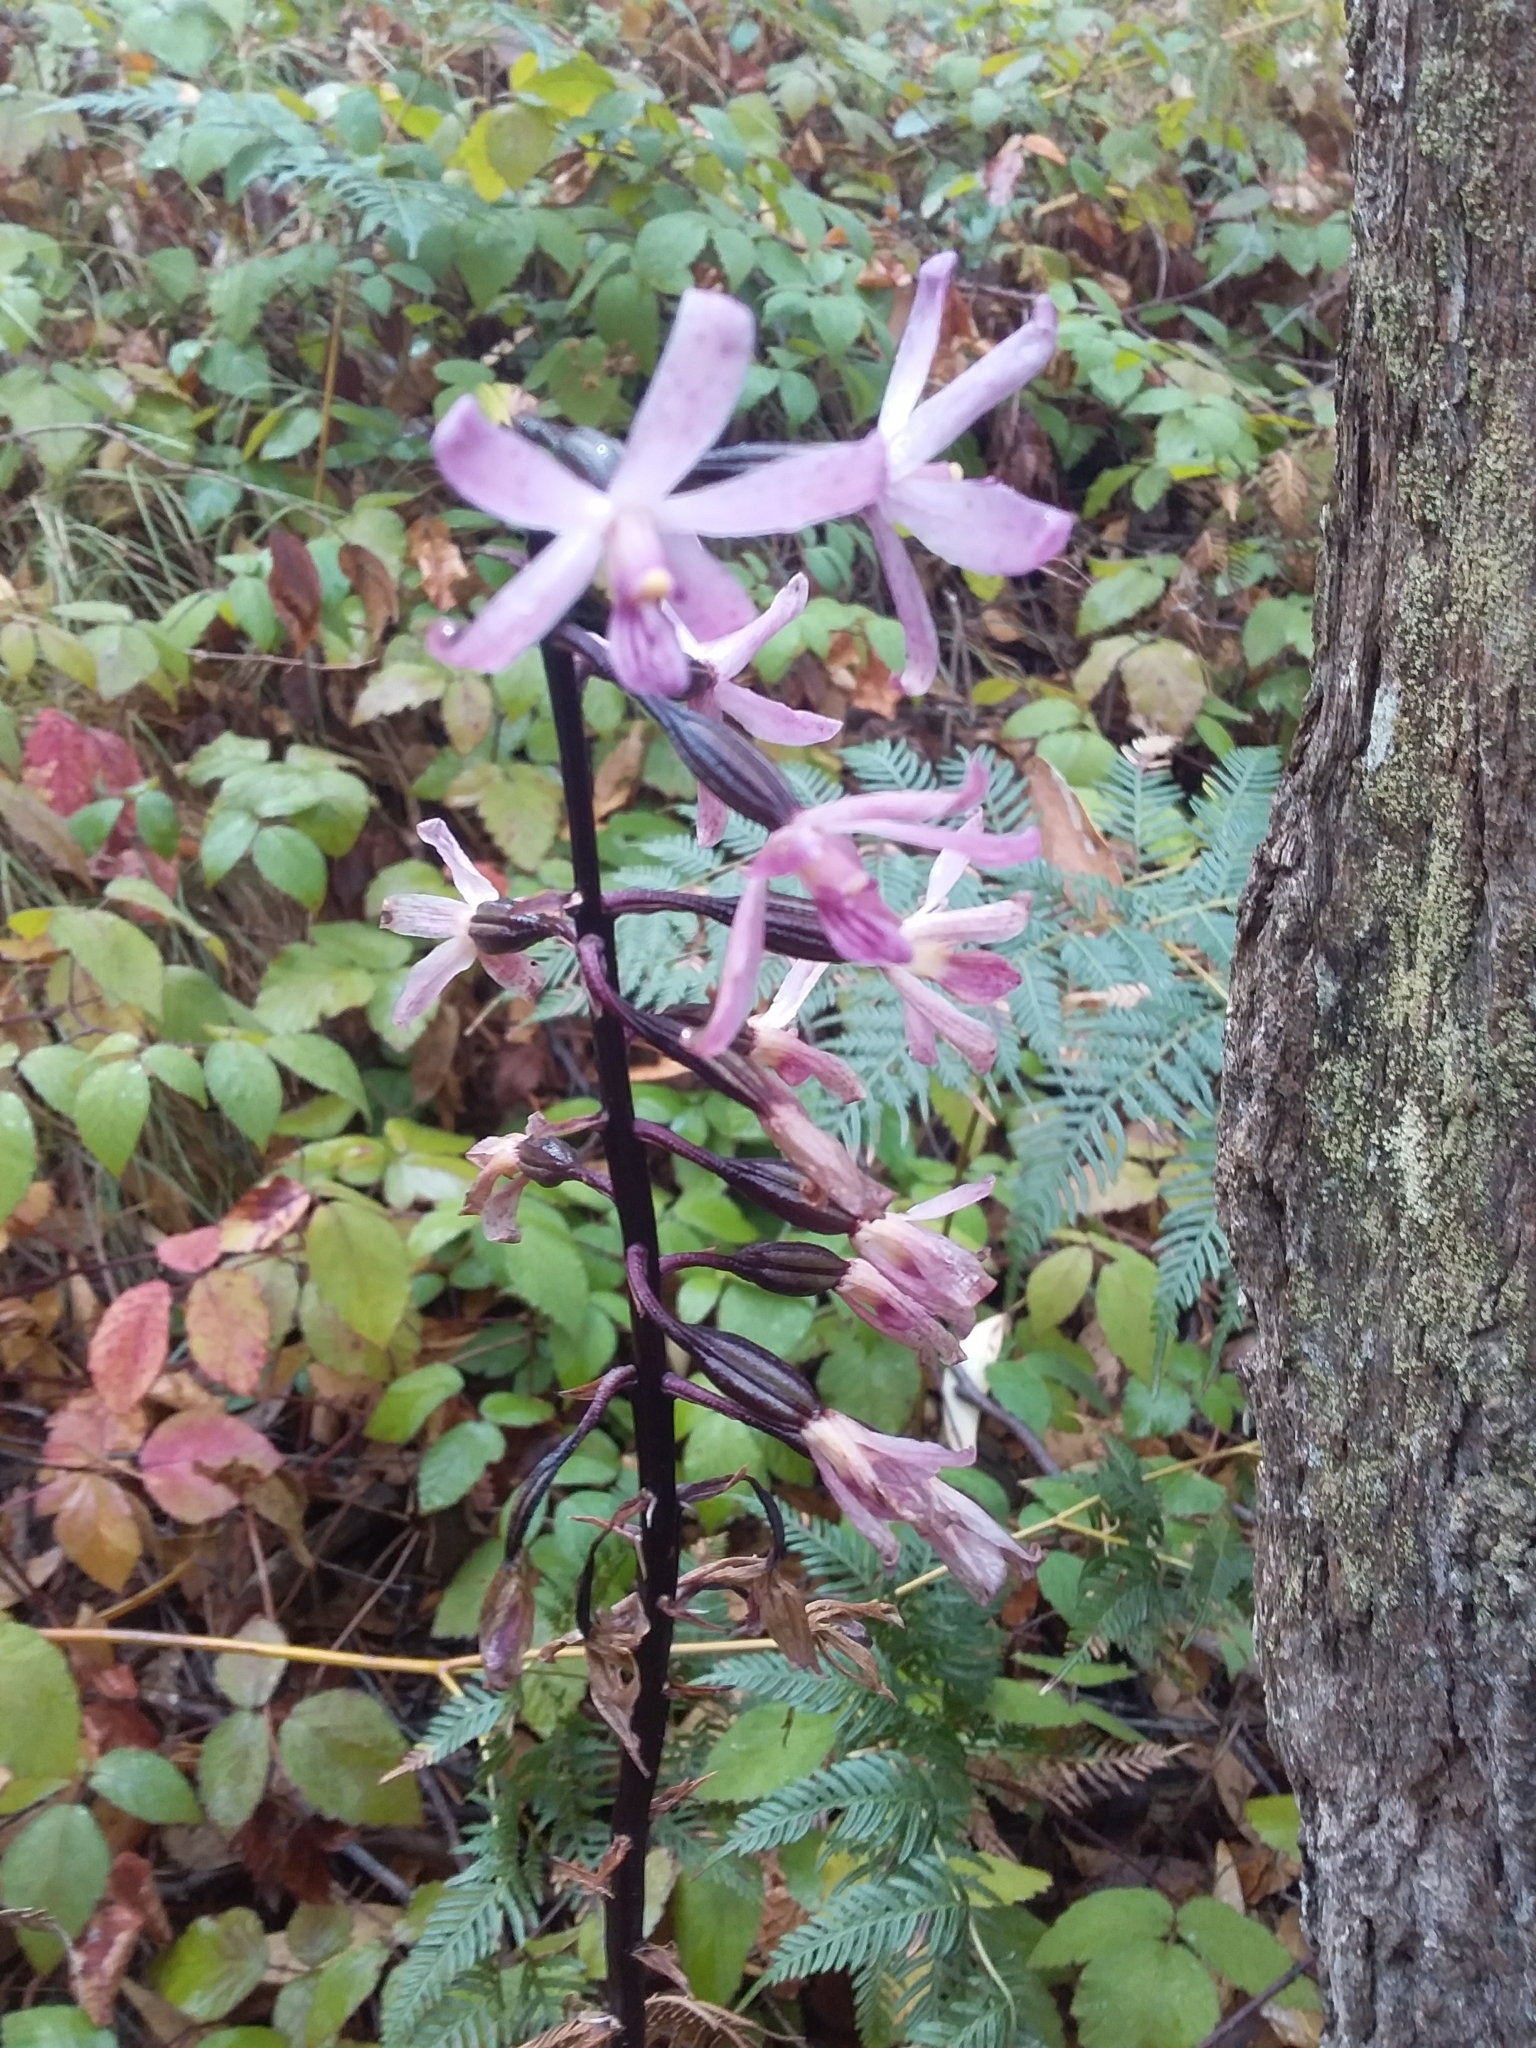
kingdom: Plantae
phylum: Tracheophyta
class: Liliopsida
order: Asparagales
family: Orchidaceae
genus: Dipodium
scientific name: Dipodium roseum
